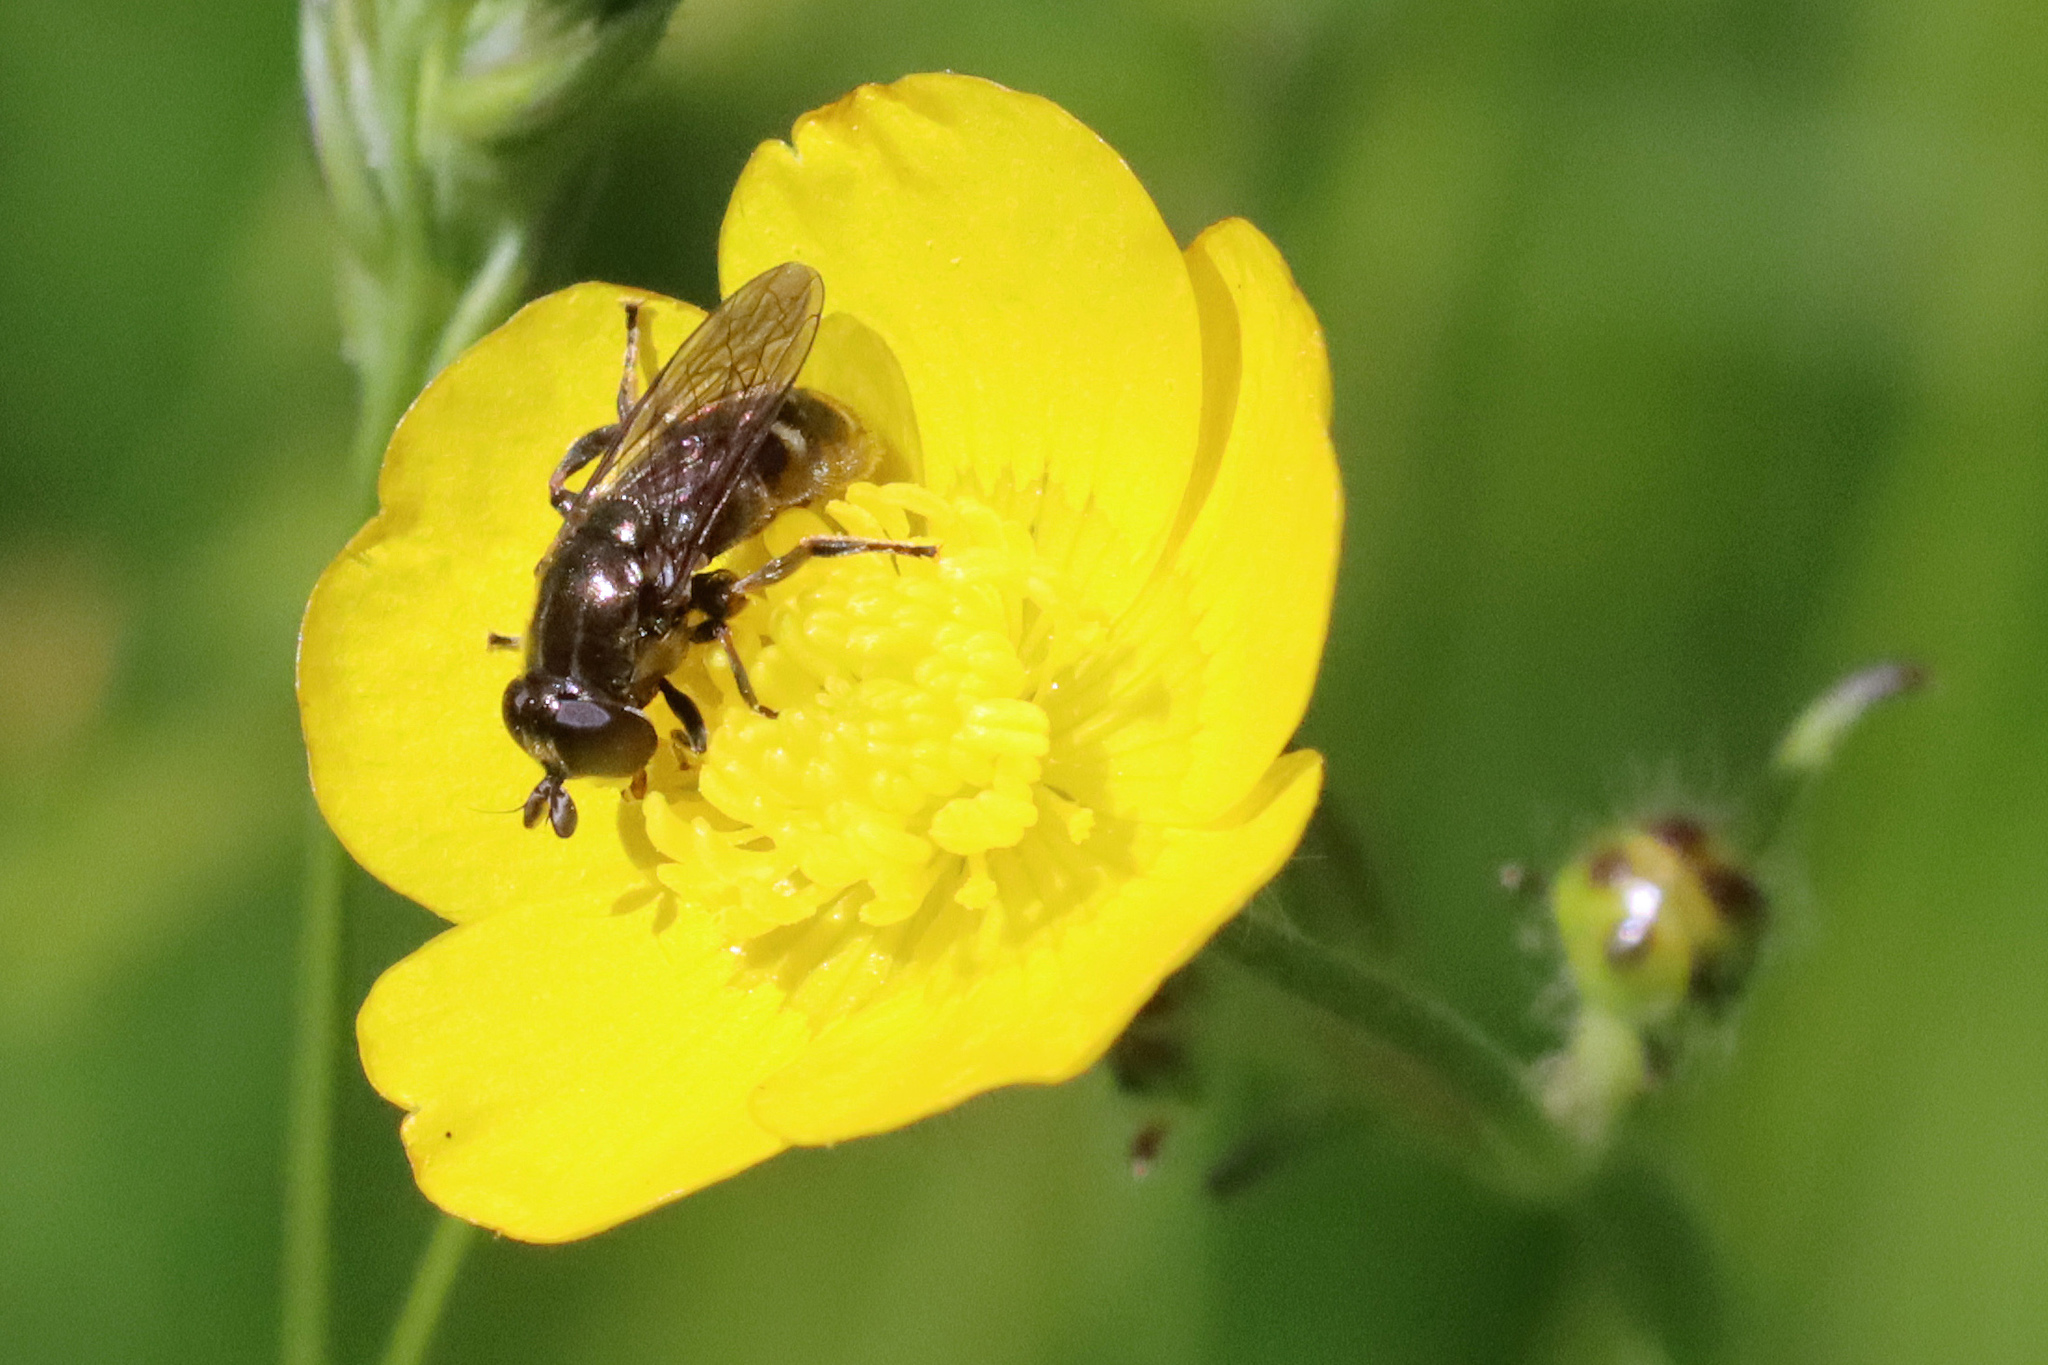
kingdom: Animalia
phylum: Arthropoda
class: Insecta
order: Diptera
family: Syrphidae
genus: Eumerus
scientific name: Eumerus
